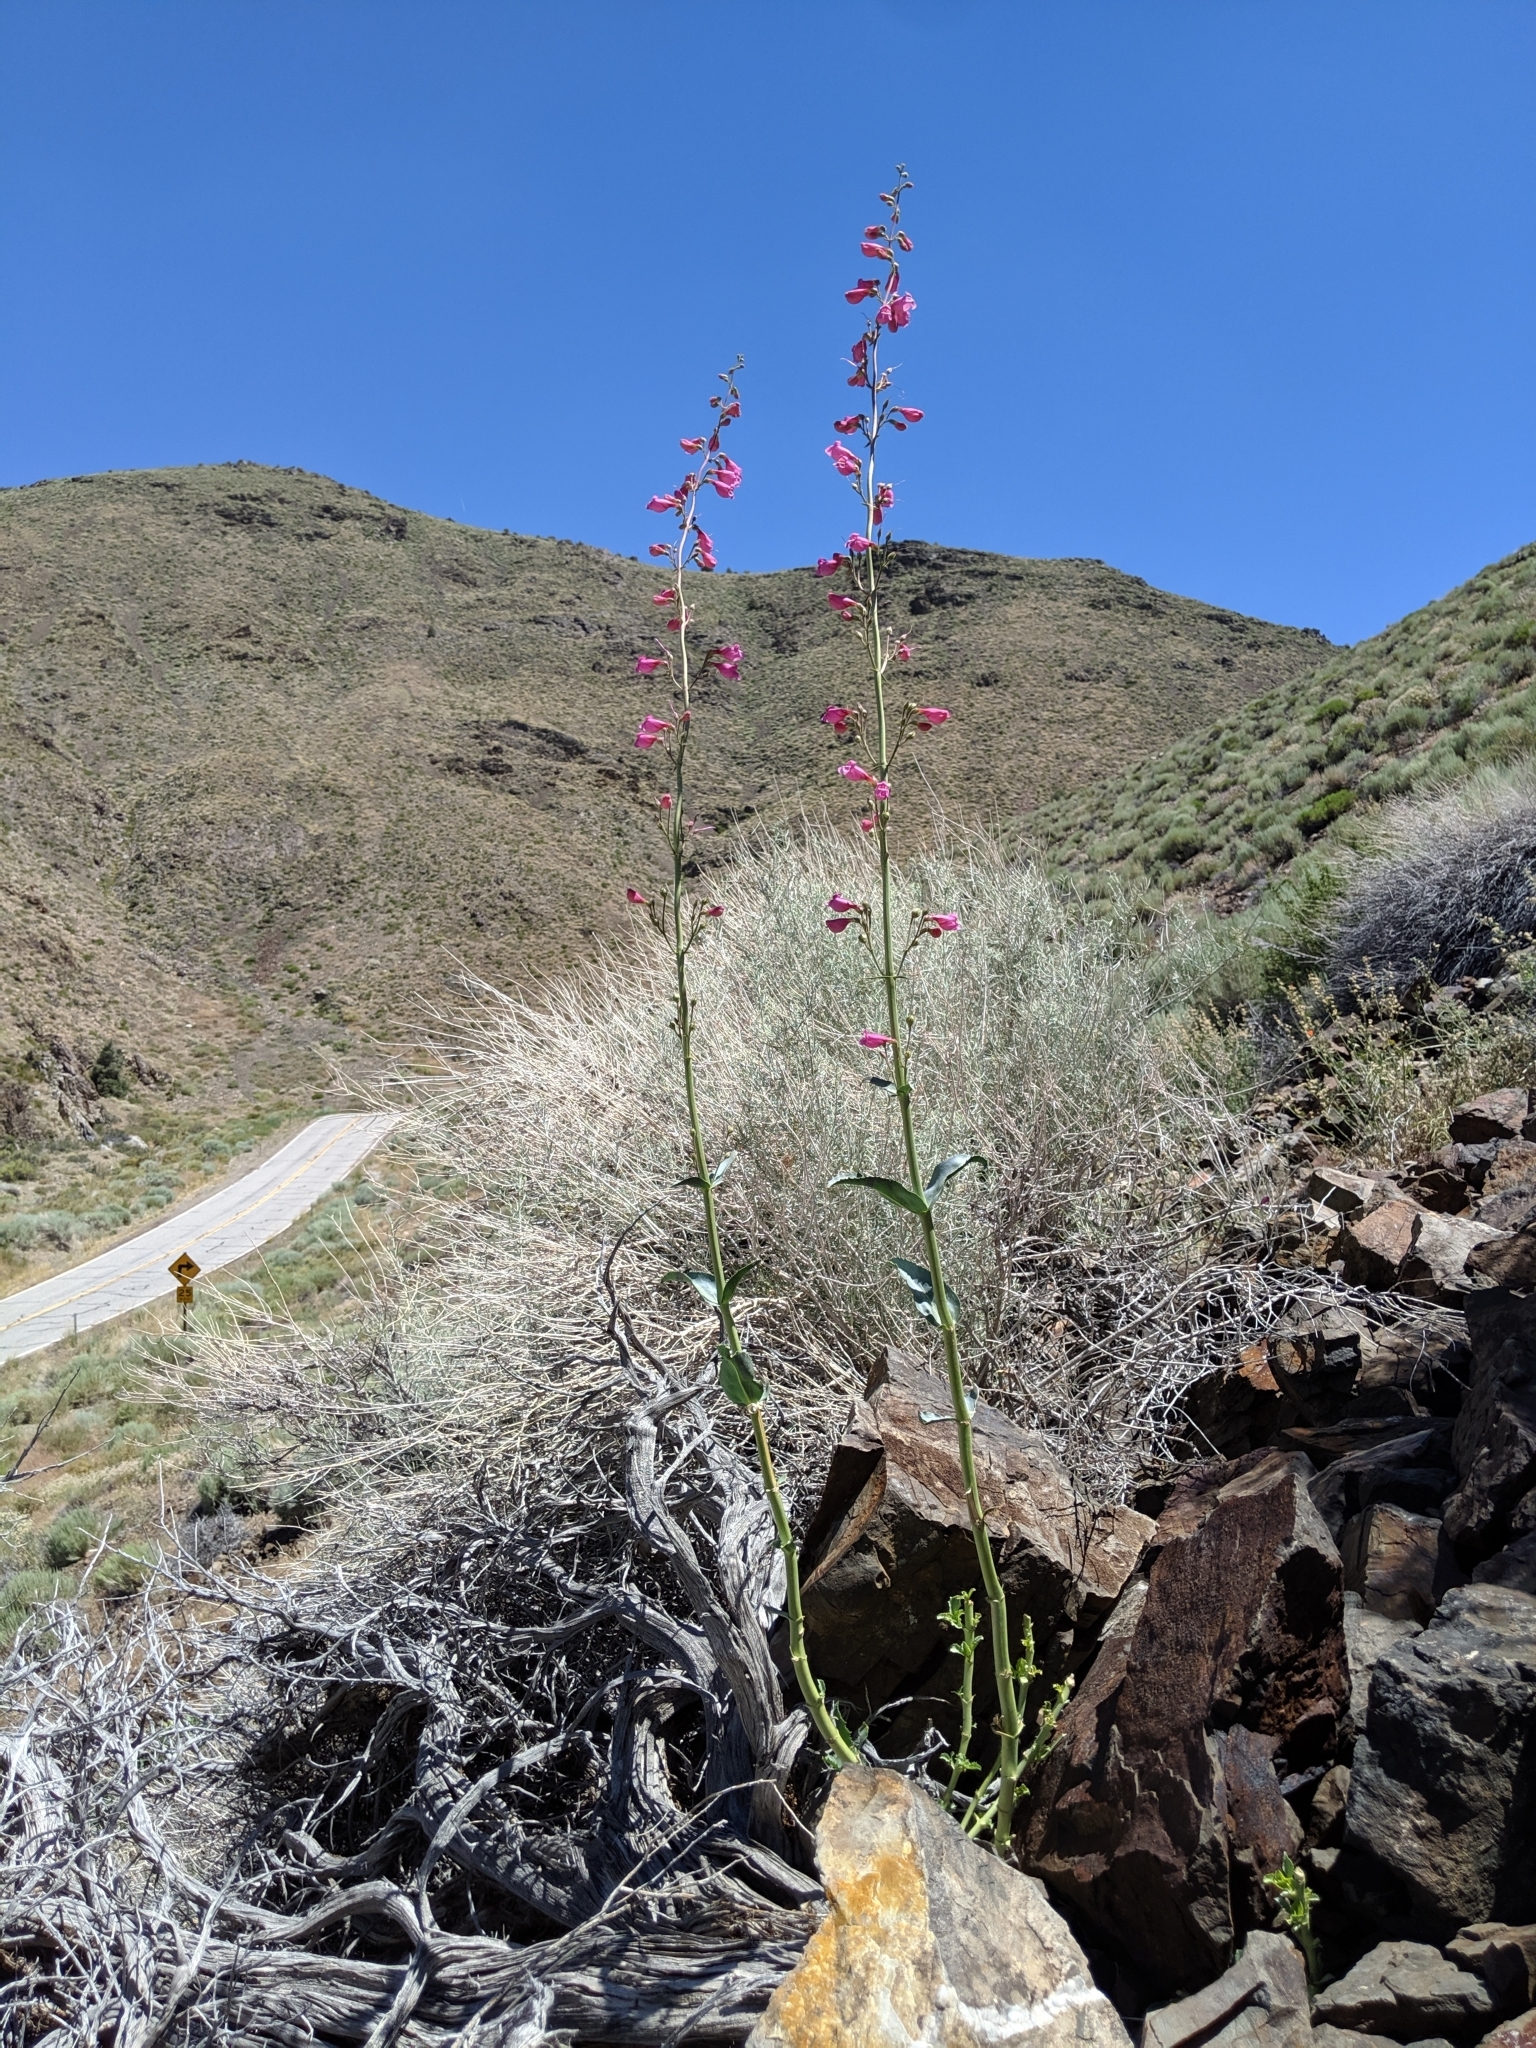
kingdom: Plantae
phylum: Tracheophyta
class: Magnoliopsida
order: Lamiales
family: Plantaginaceae
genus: Penstemon
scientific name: Penstemon floridus
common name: Panamint penstemon
